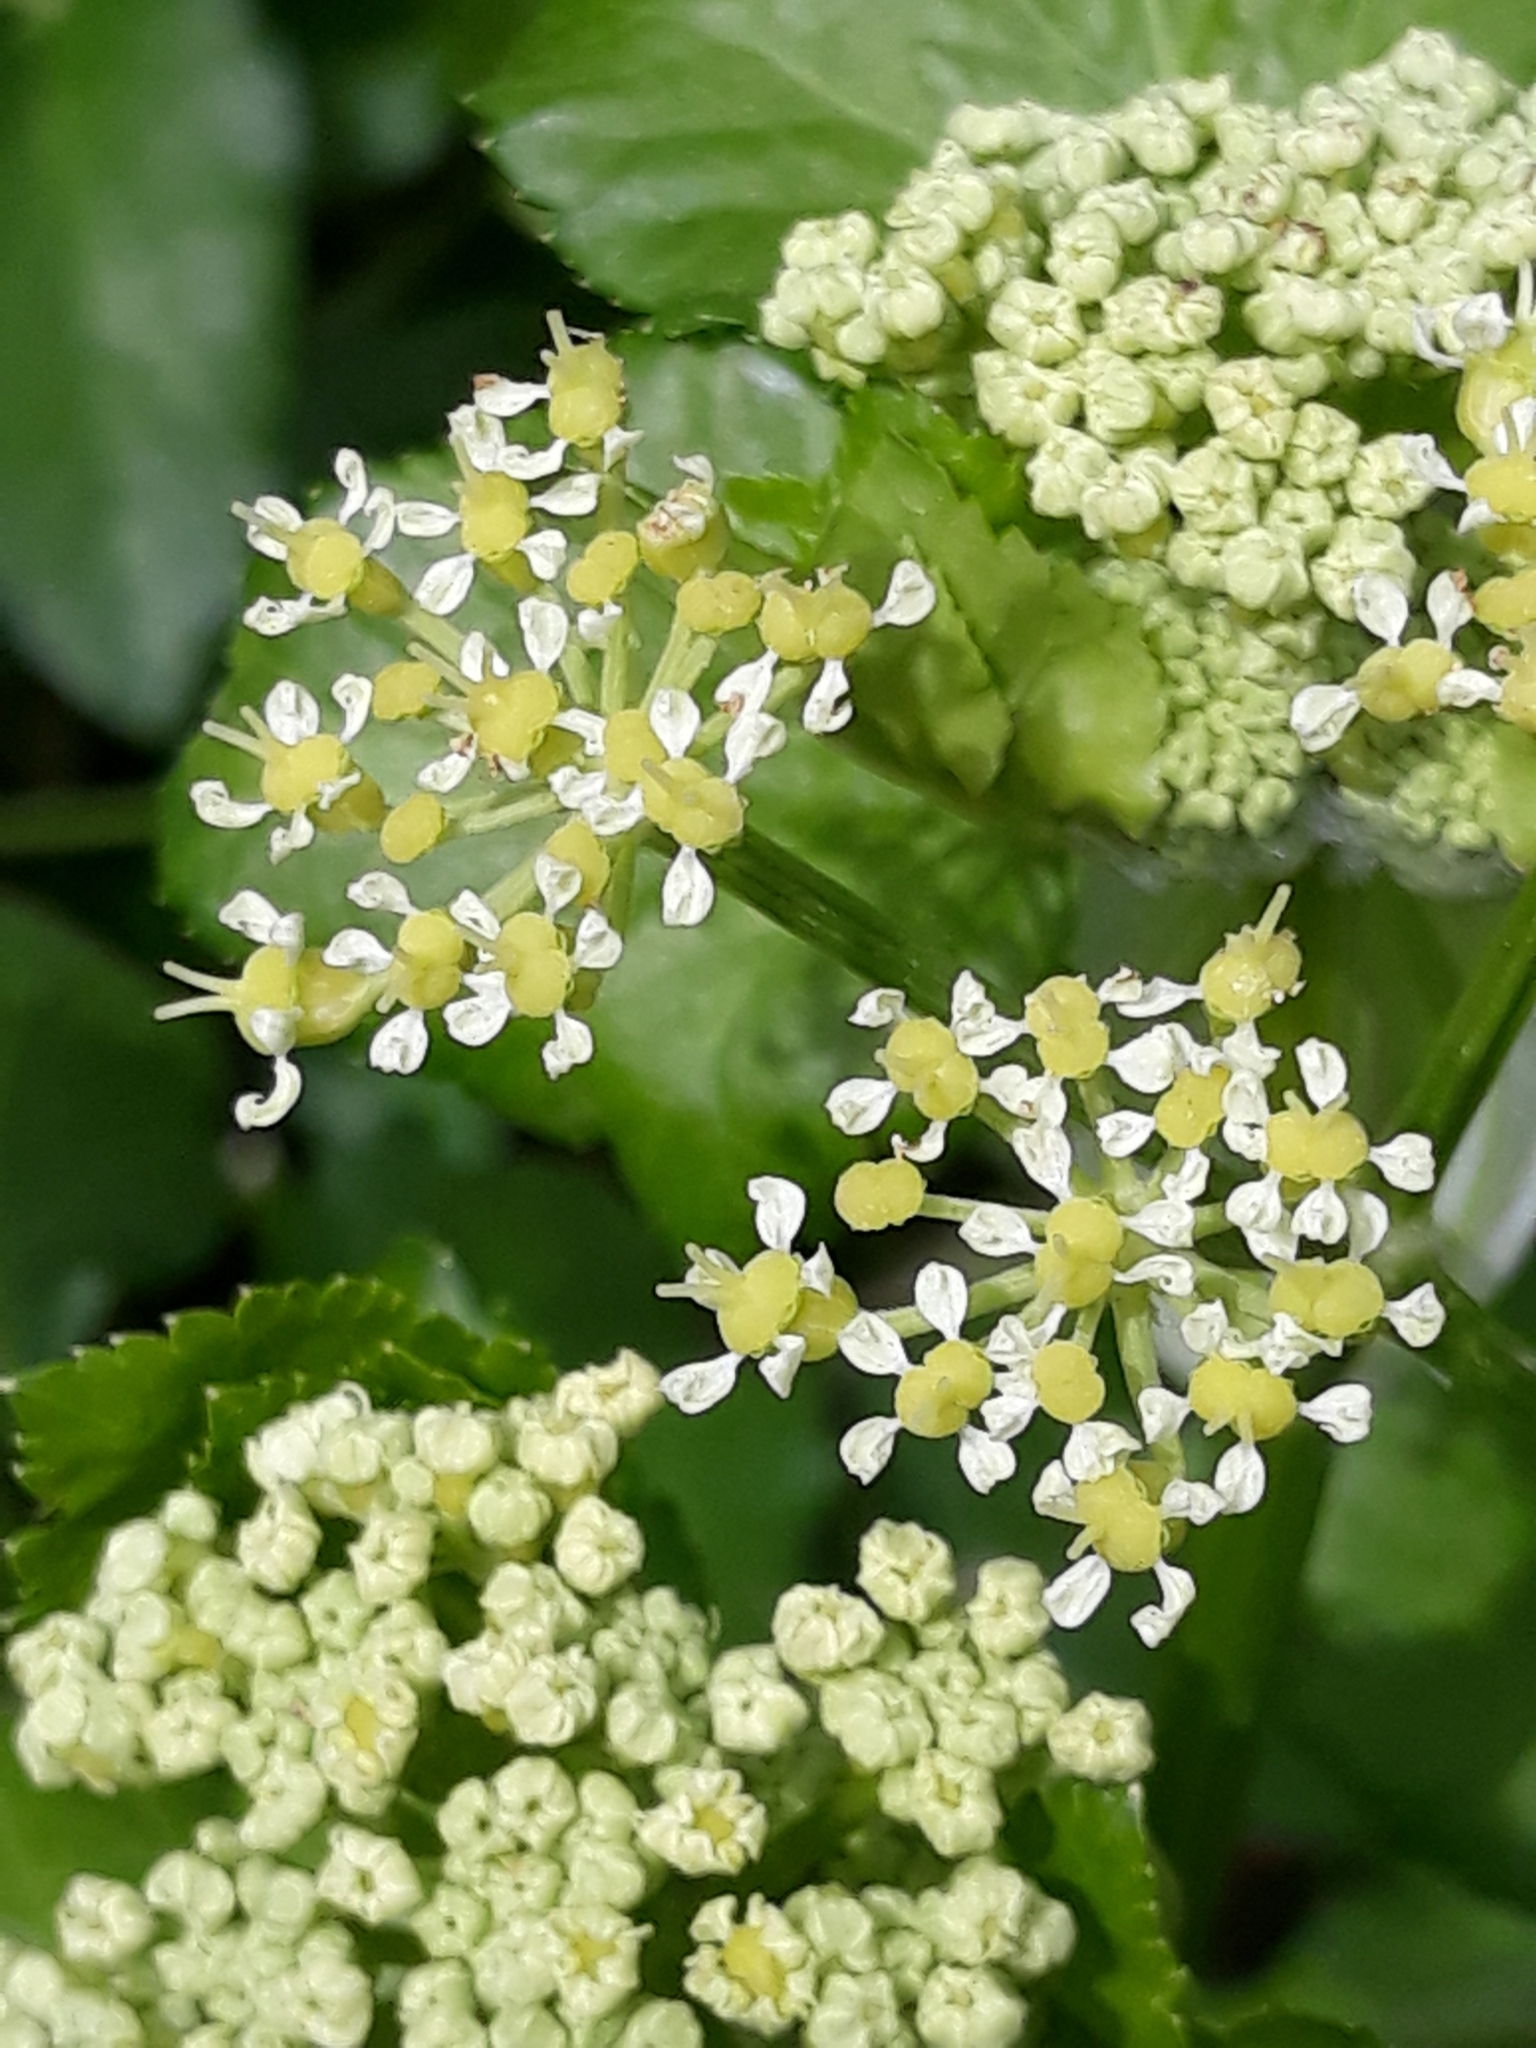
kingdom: Plantae
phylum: Tracheophyta
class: Magnoliopsida
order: Apiales
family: Apiaceae
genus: Smyrnium
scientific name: Smyrnium olusatrum
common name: Alexanders
